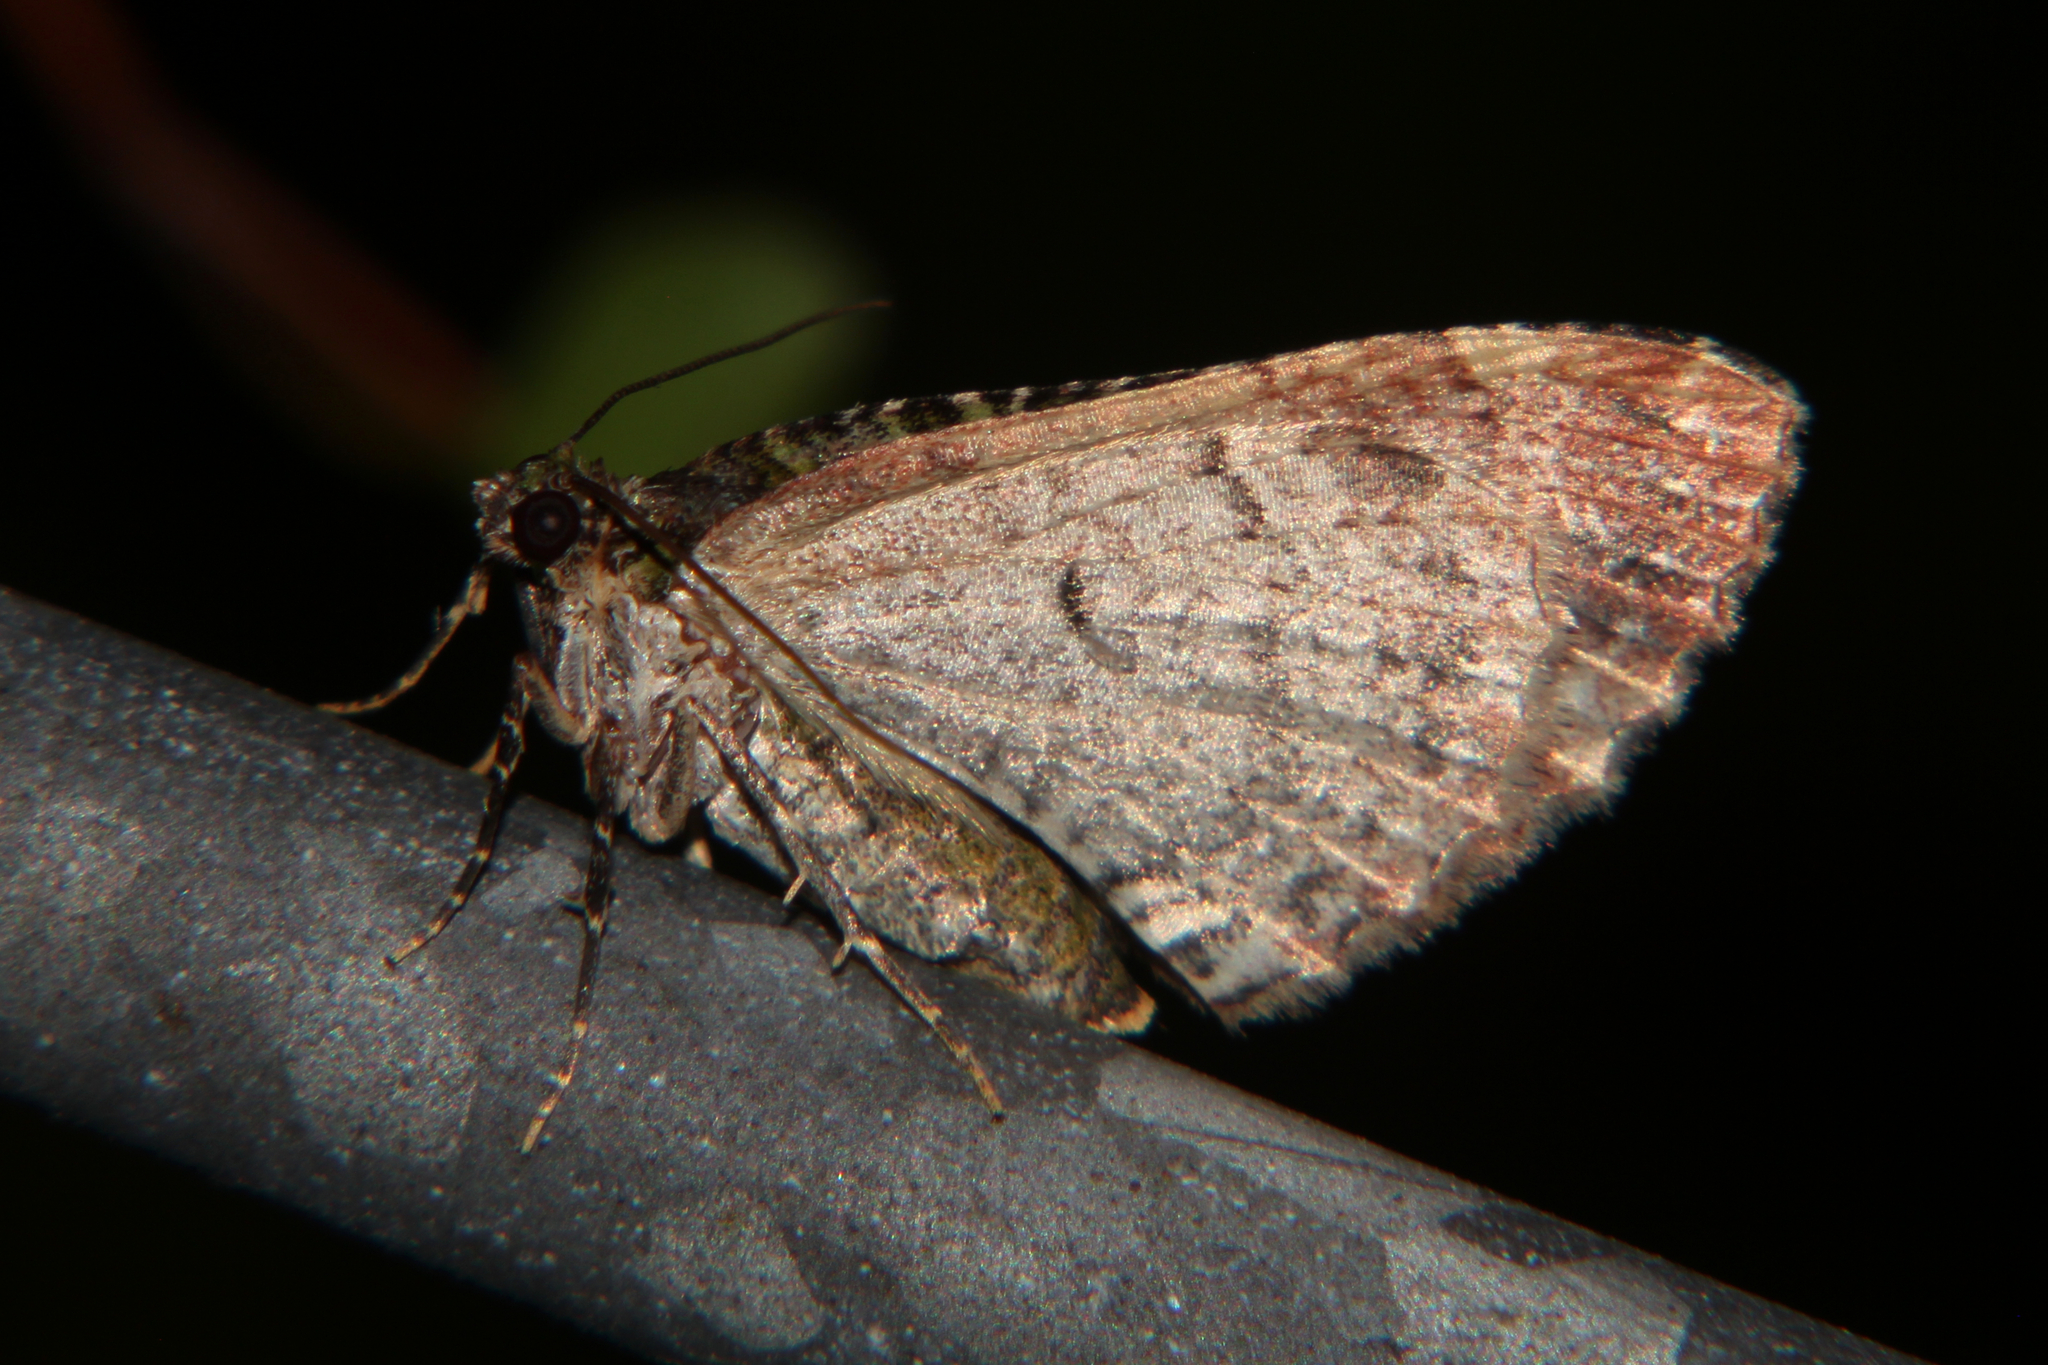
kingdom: Animalia
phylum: Arthropoda
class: Insecta
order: Lepidoptera
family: Geometridae
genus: Austrocidaria
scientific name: Austrocidaria similata
